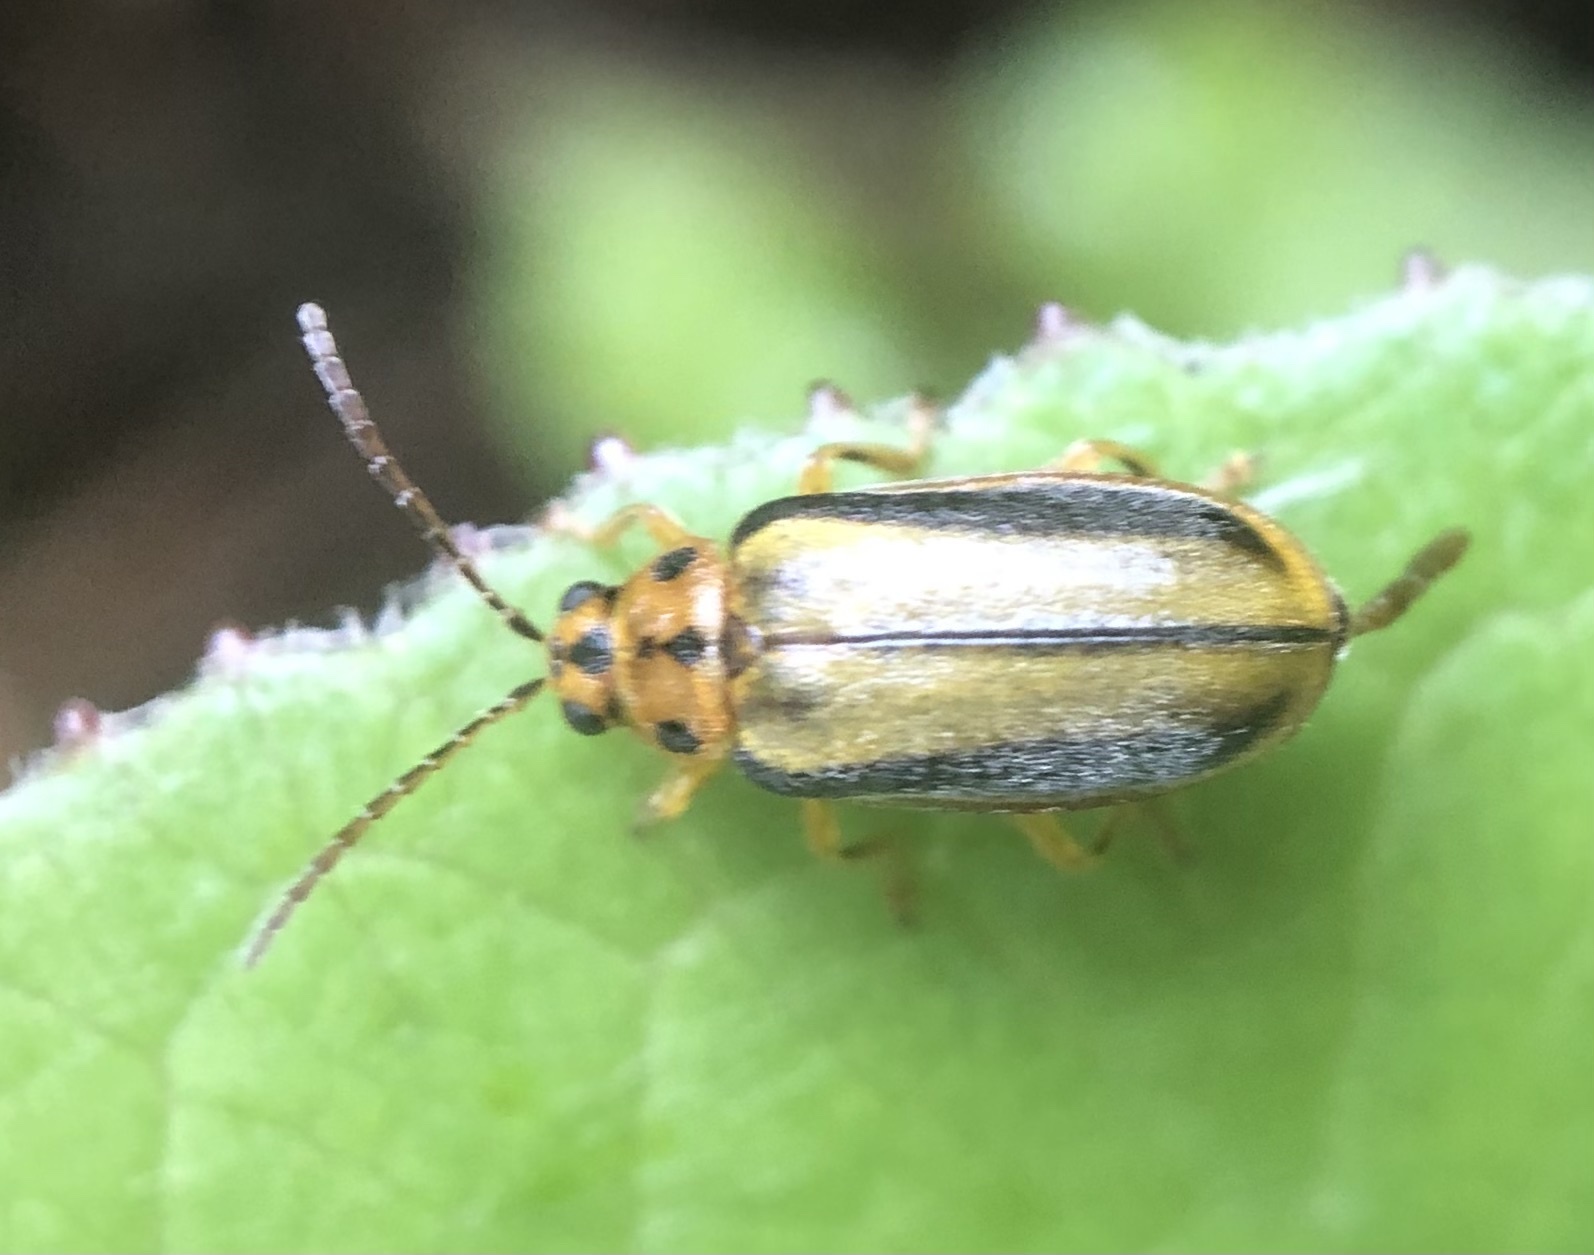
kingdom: Animalia
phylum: Arthropoda
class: Insecta
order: Coleoptera
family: Chrysomelidae
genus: Xanthogaleruca
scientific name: Xanthogaleruca luteola
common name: Elm leaf beetle
